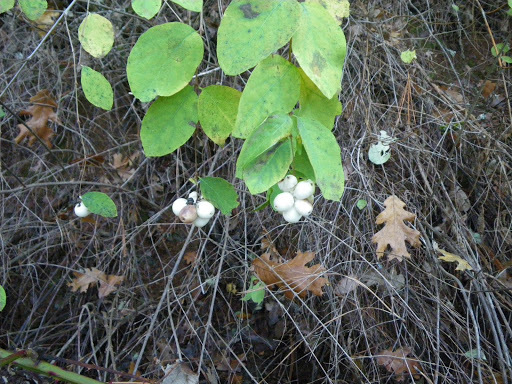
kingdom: Plantae
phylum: Tracheophyta
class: Magnoliopsida
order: Dipsacales
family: Caprifoliaceae
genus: Symphoricarpos
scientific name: Symphoricarpos albus
